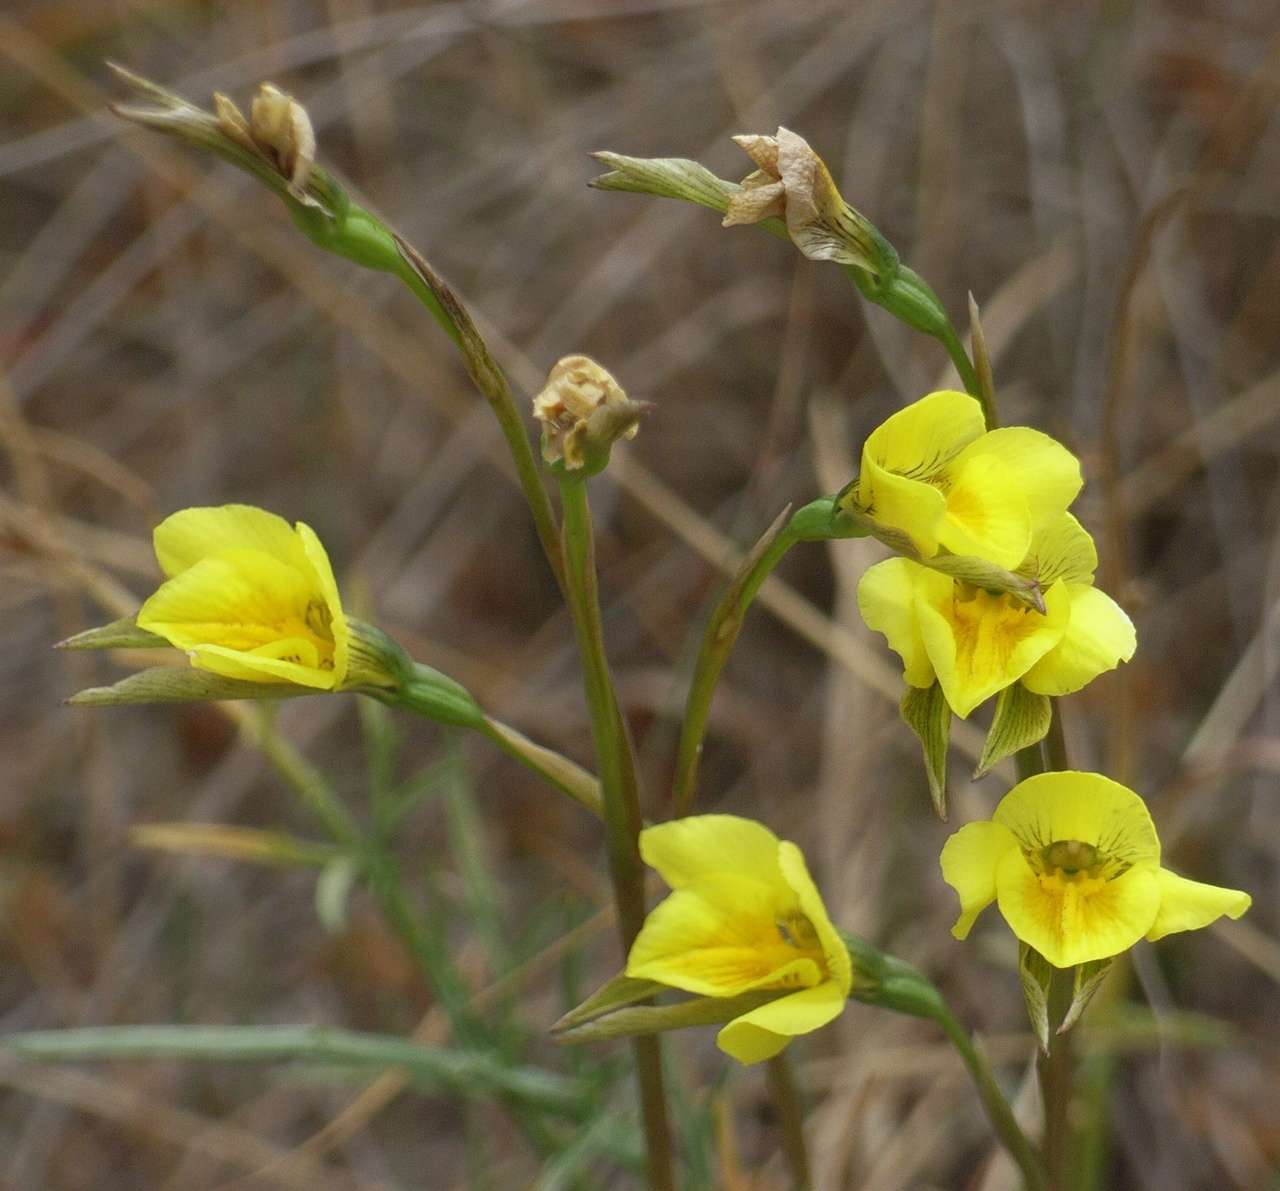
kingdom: Plantae
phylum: Tracheophyta
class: Liliopsida
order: Asparagales
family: Orchidaceae
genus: Diuris
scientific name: Diuris chryseopsis
